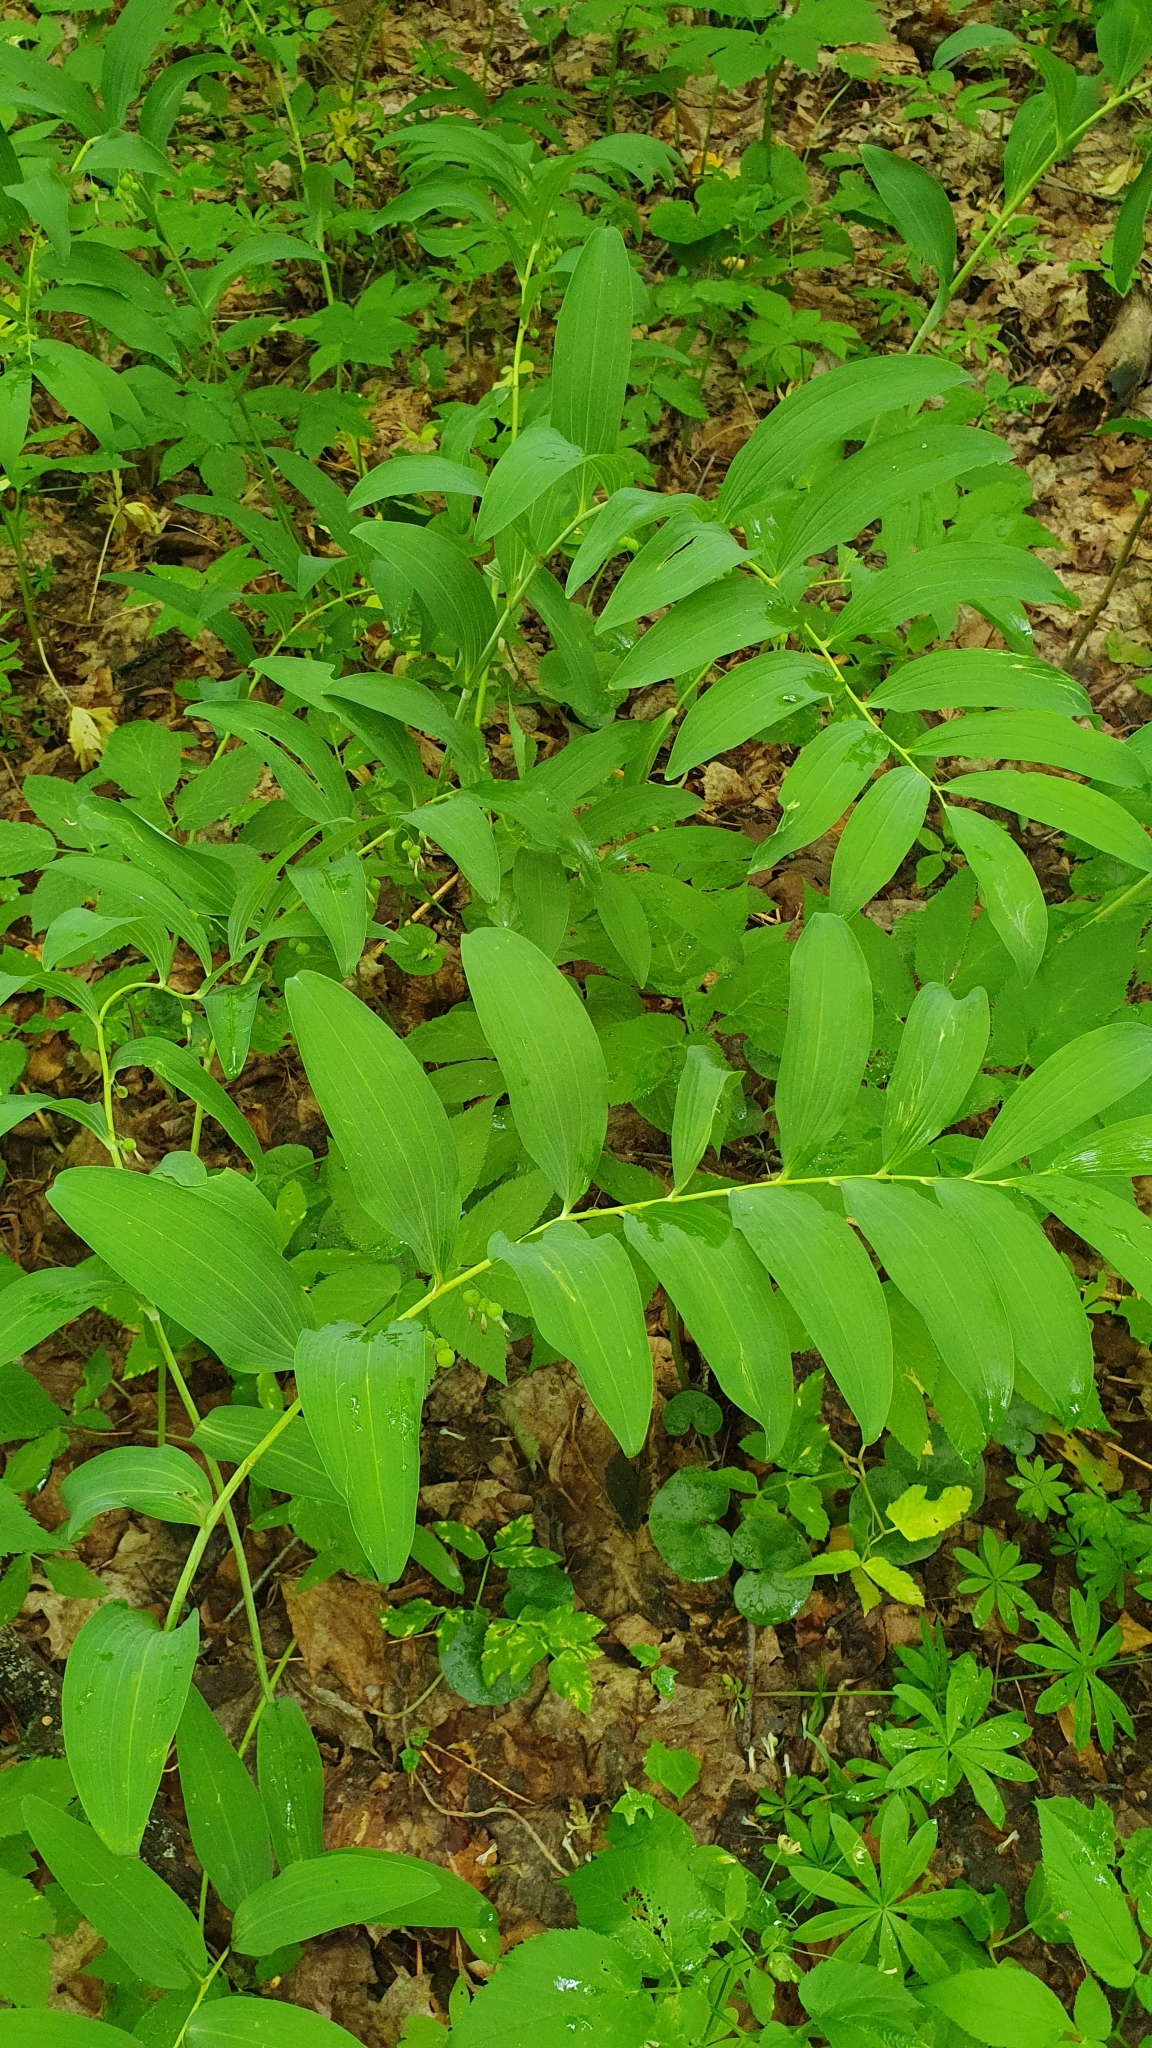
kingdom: Plantae
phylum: Tracheophyta
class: Liliopsida
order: Asparagales
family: Asparagaceae
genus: Polygonatum
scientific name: Polygonatum multiflorum
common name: Solomon's-seal
